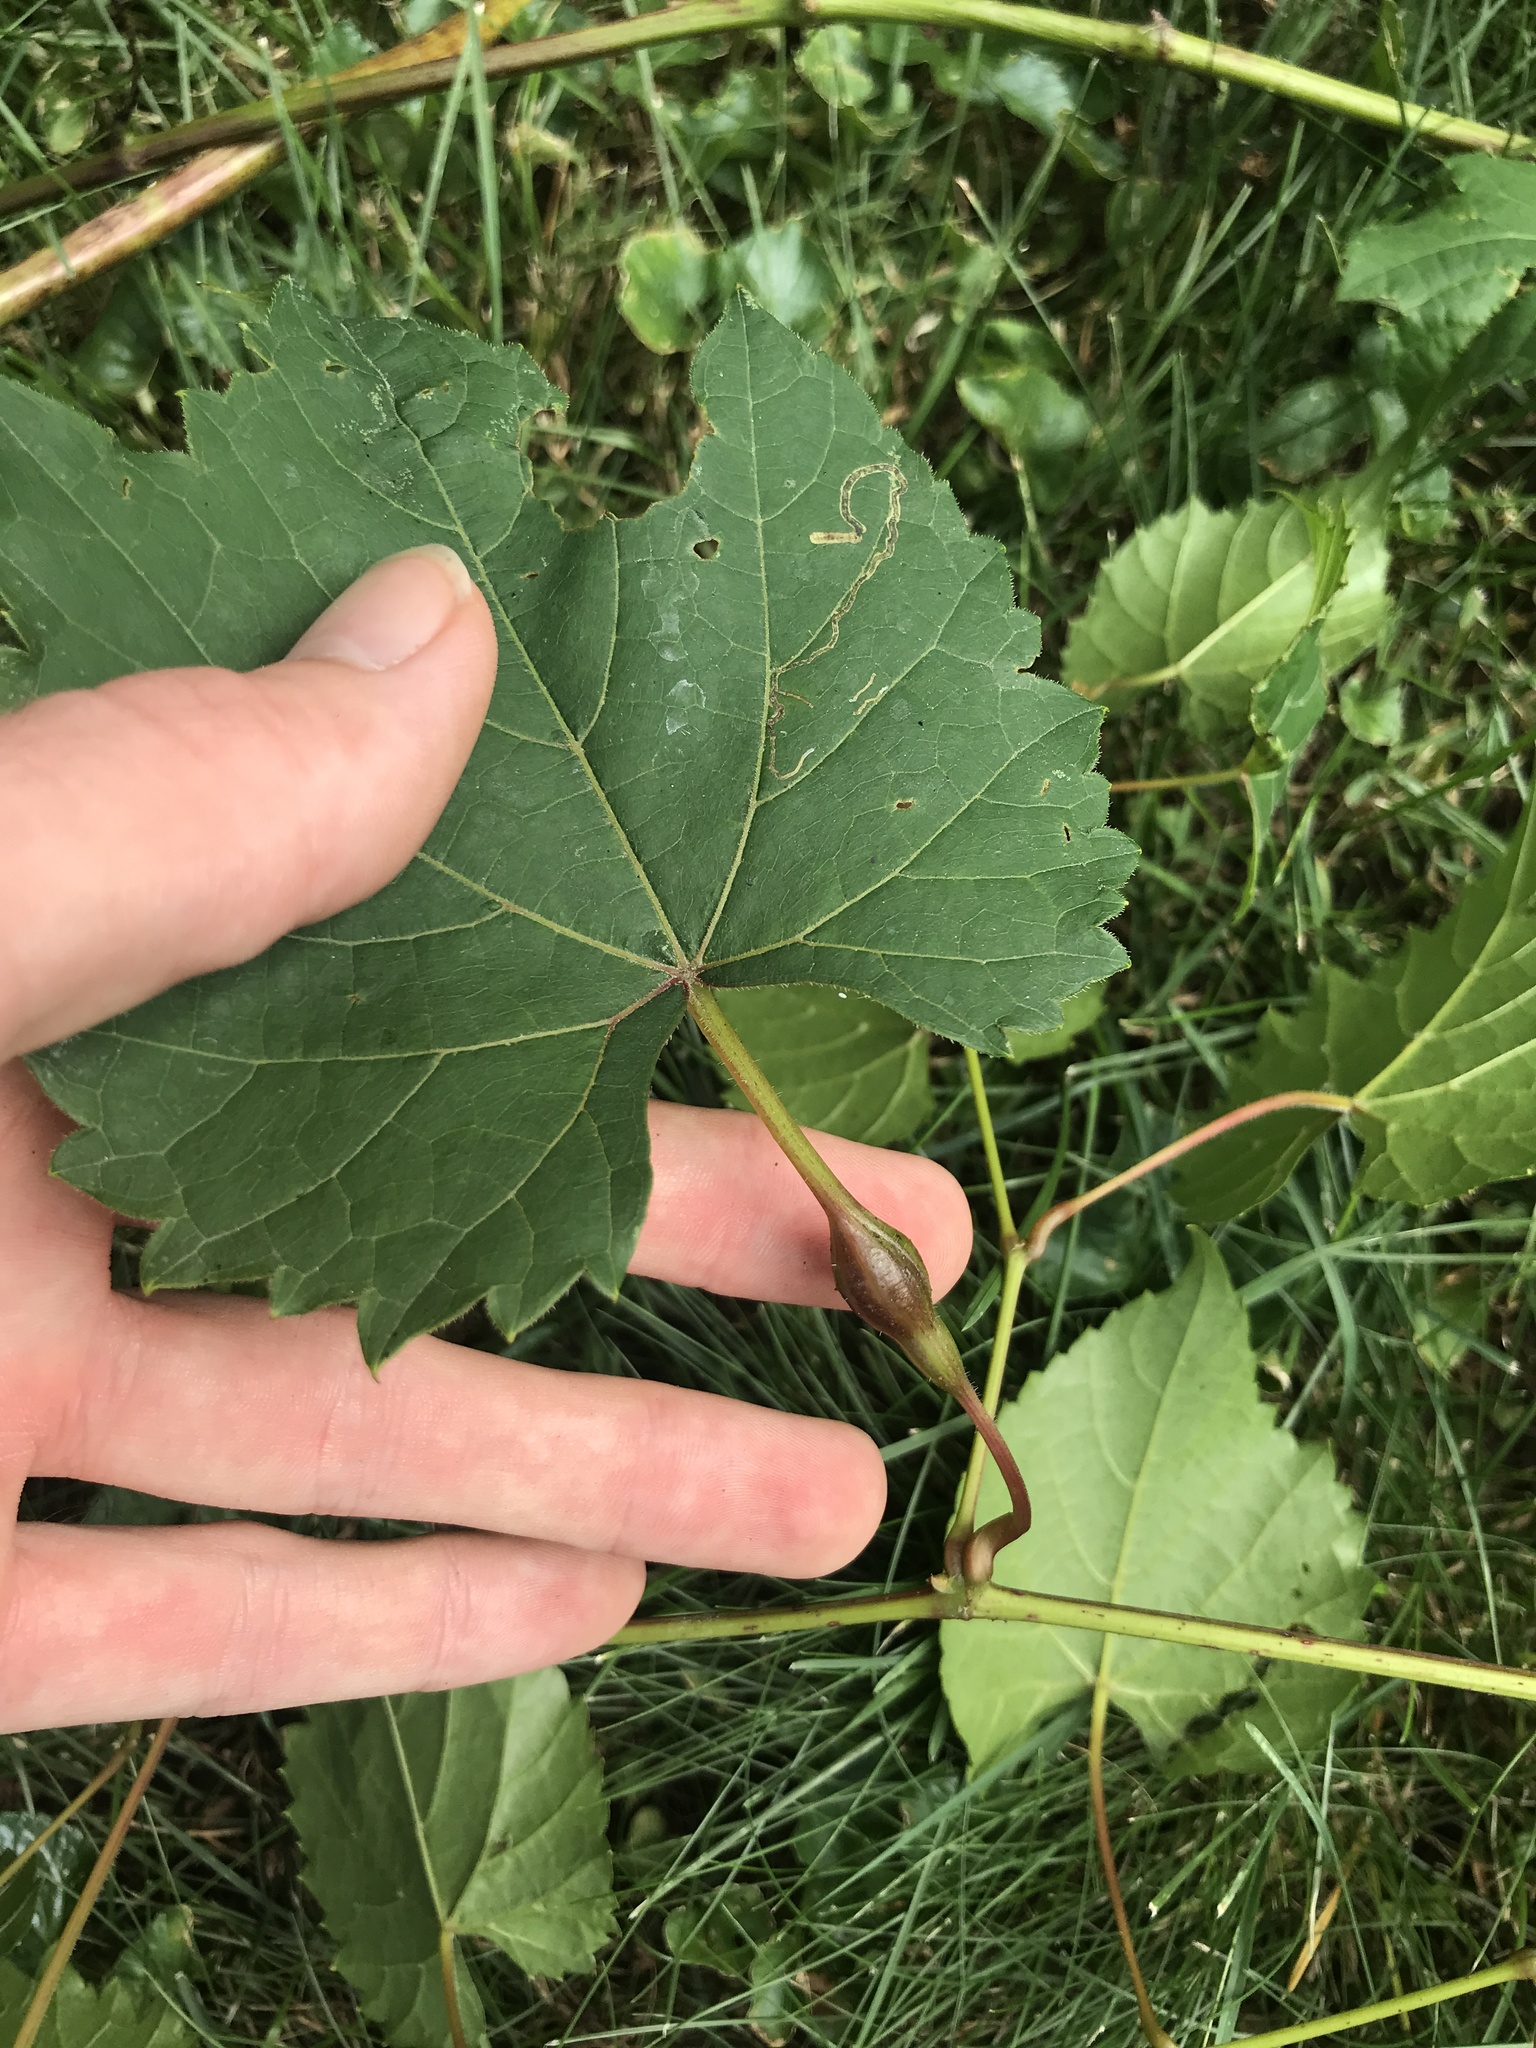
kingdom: Animalia
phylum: Arthropoda
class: Insecta
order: Diptera
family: Cecidomyiidae
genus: Neolasioptera
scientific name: Neolasioptera vitinea
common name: Grape leaf petiole gall
